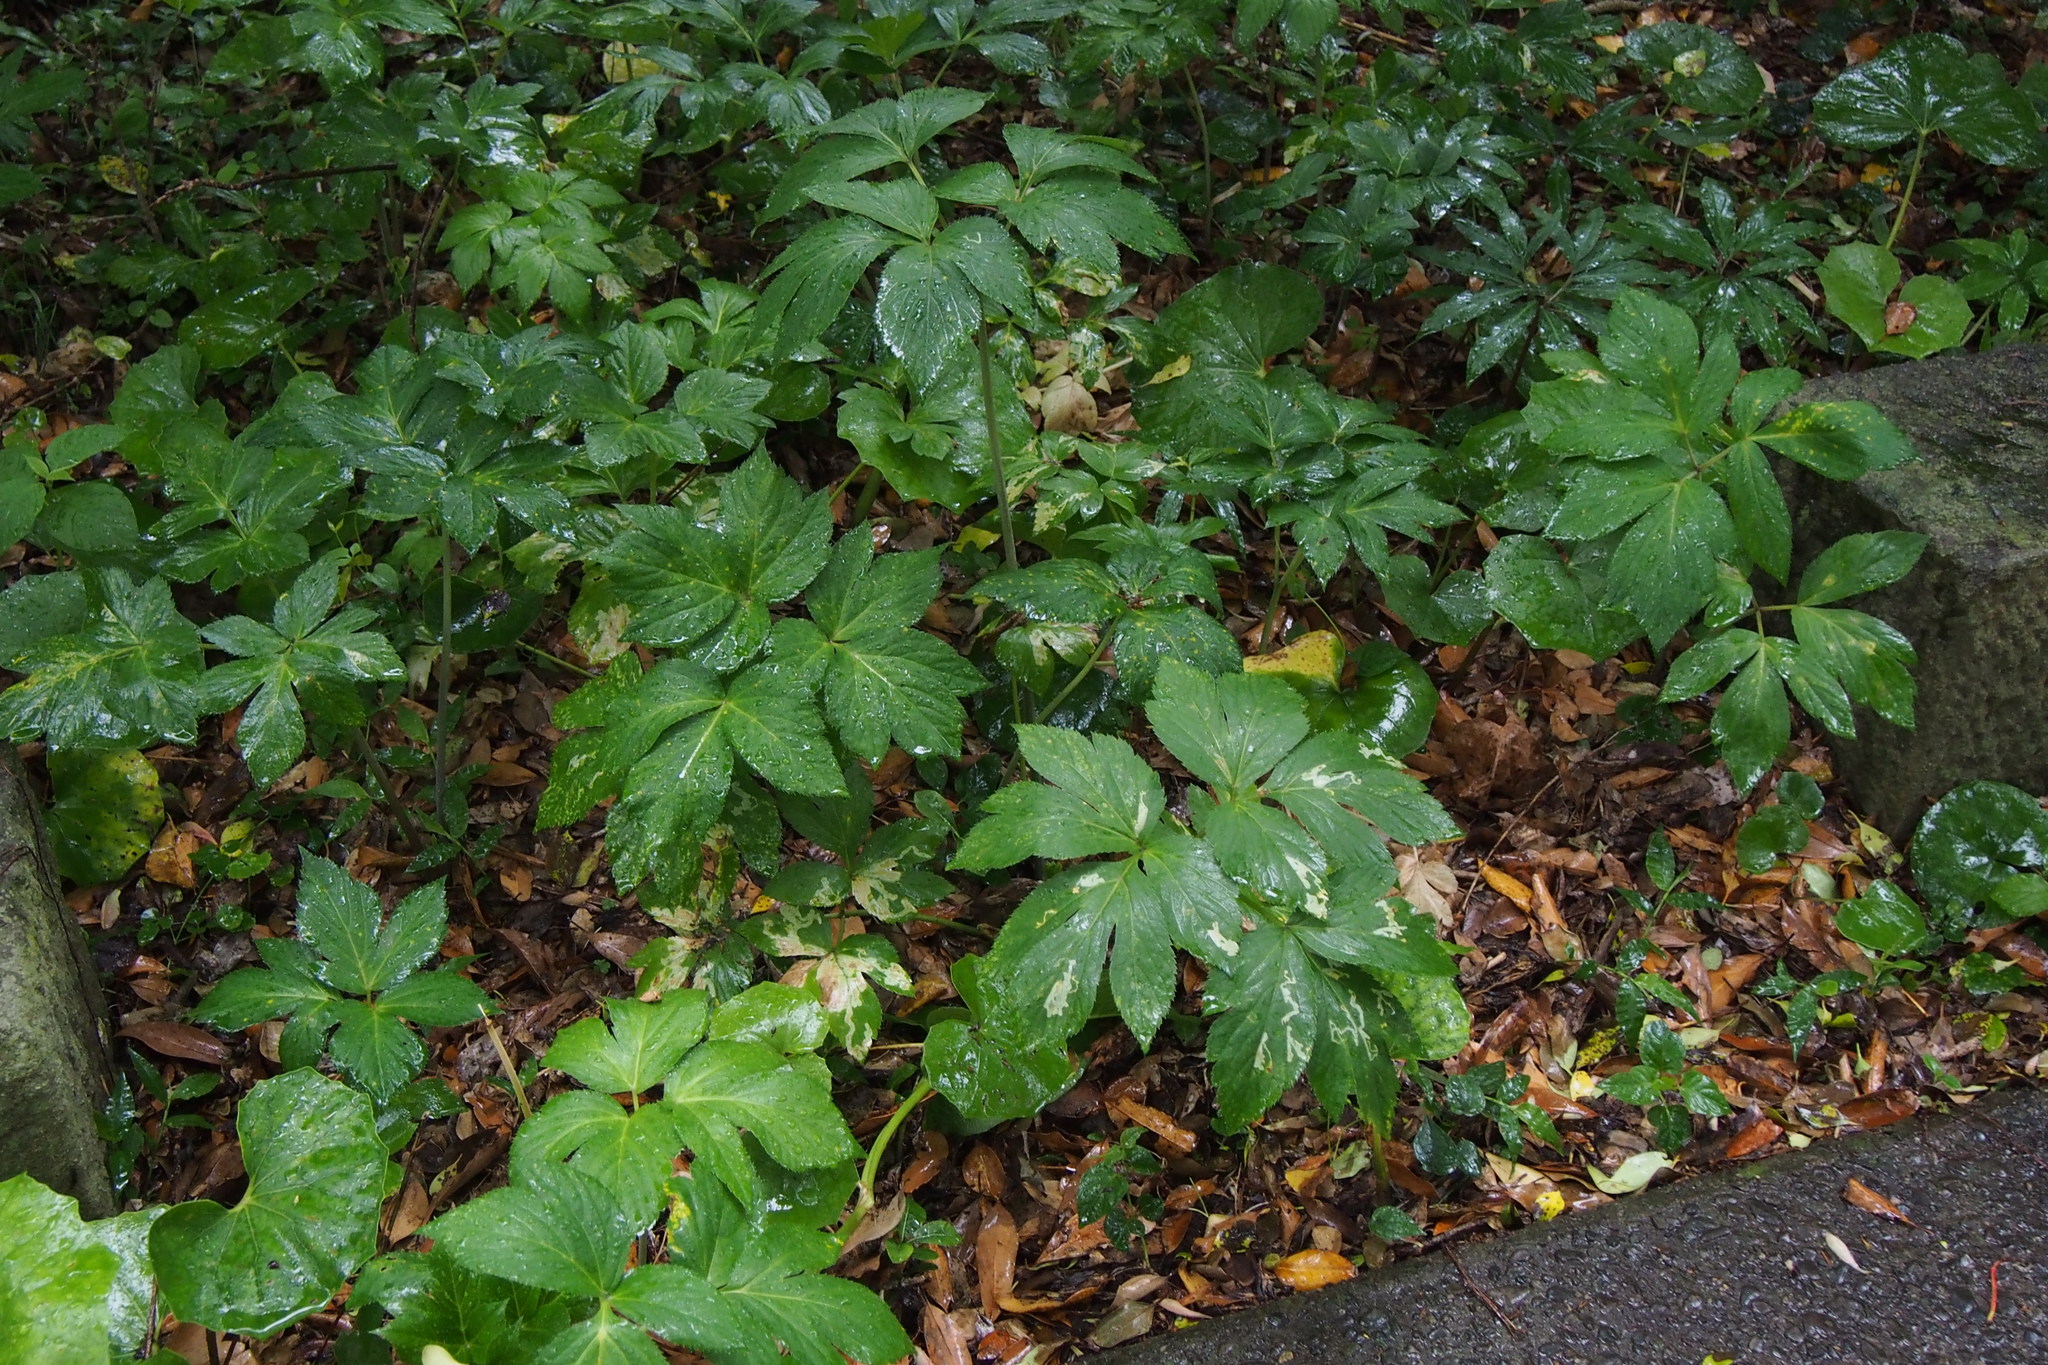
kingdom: Plantae
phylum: Tracheophyta
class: Magnoliopsida
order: Apiales
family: Apiaceae
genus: Angelica
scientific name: Angelica japonica
